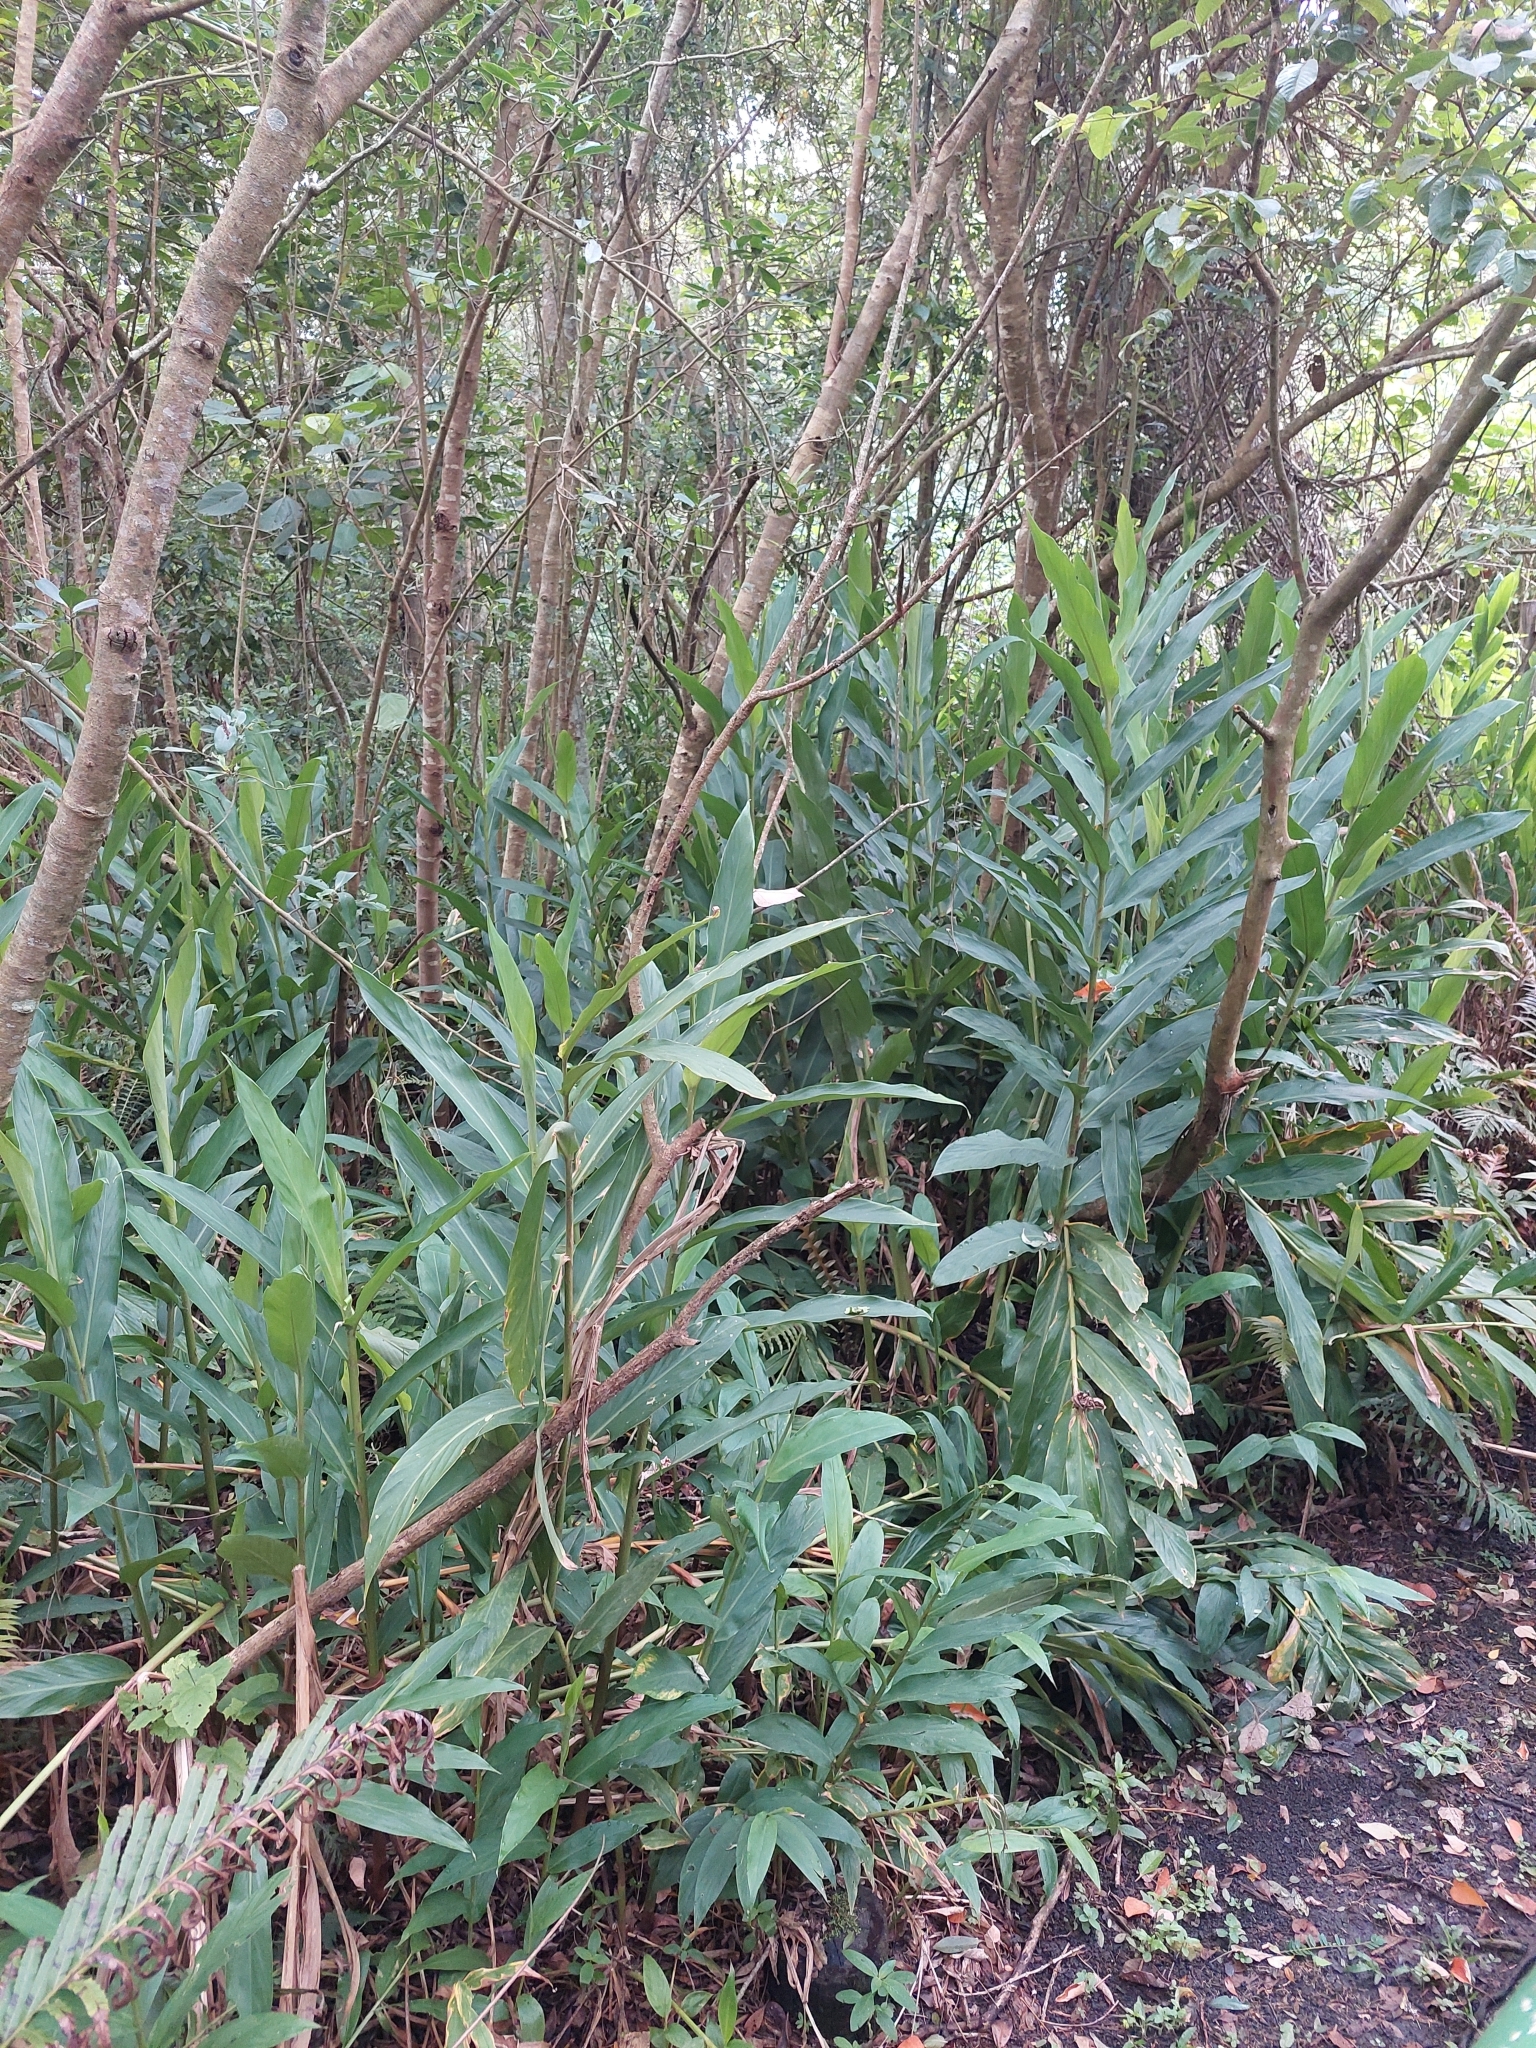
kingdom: Plantae
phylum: Tracheophyta
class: Liliopsida
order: Zingiberales
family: Zingiberaceae
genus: Hedychium
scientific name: Hedychium coronarium
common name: White garland-lily
